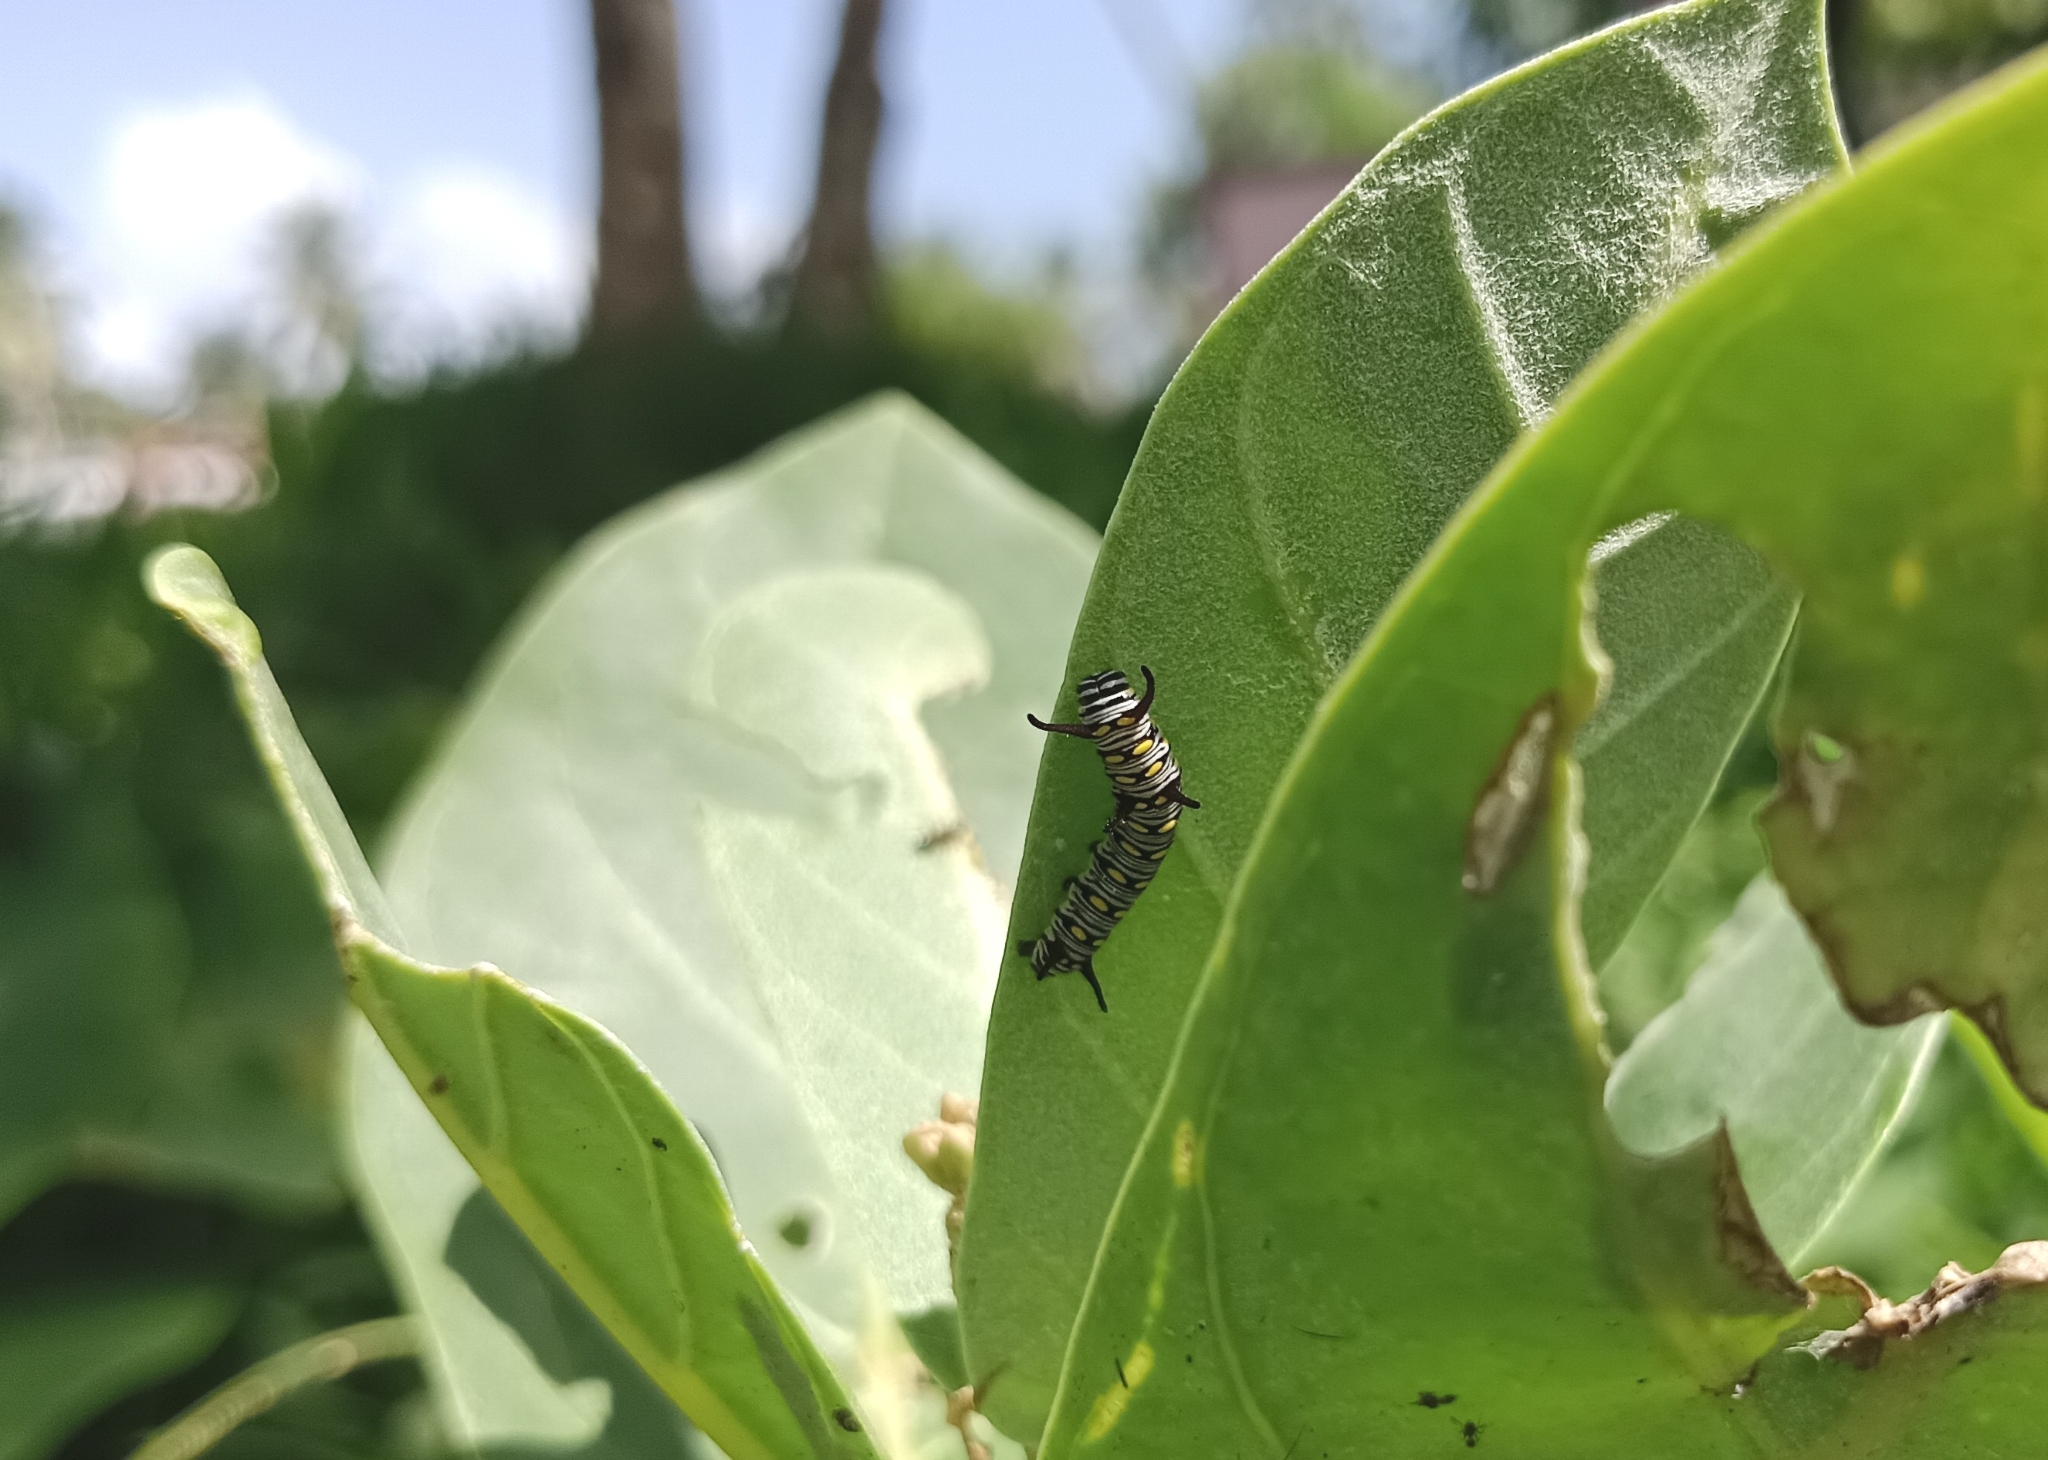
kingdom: Animalia
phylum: Arthropoda
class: Insecta
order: Lepidoptera
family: Nymphalidae
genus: Danaus
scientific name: Danaus chrysippus
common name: Plain tiger
